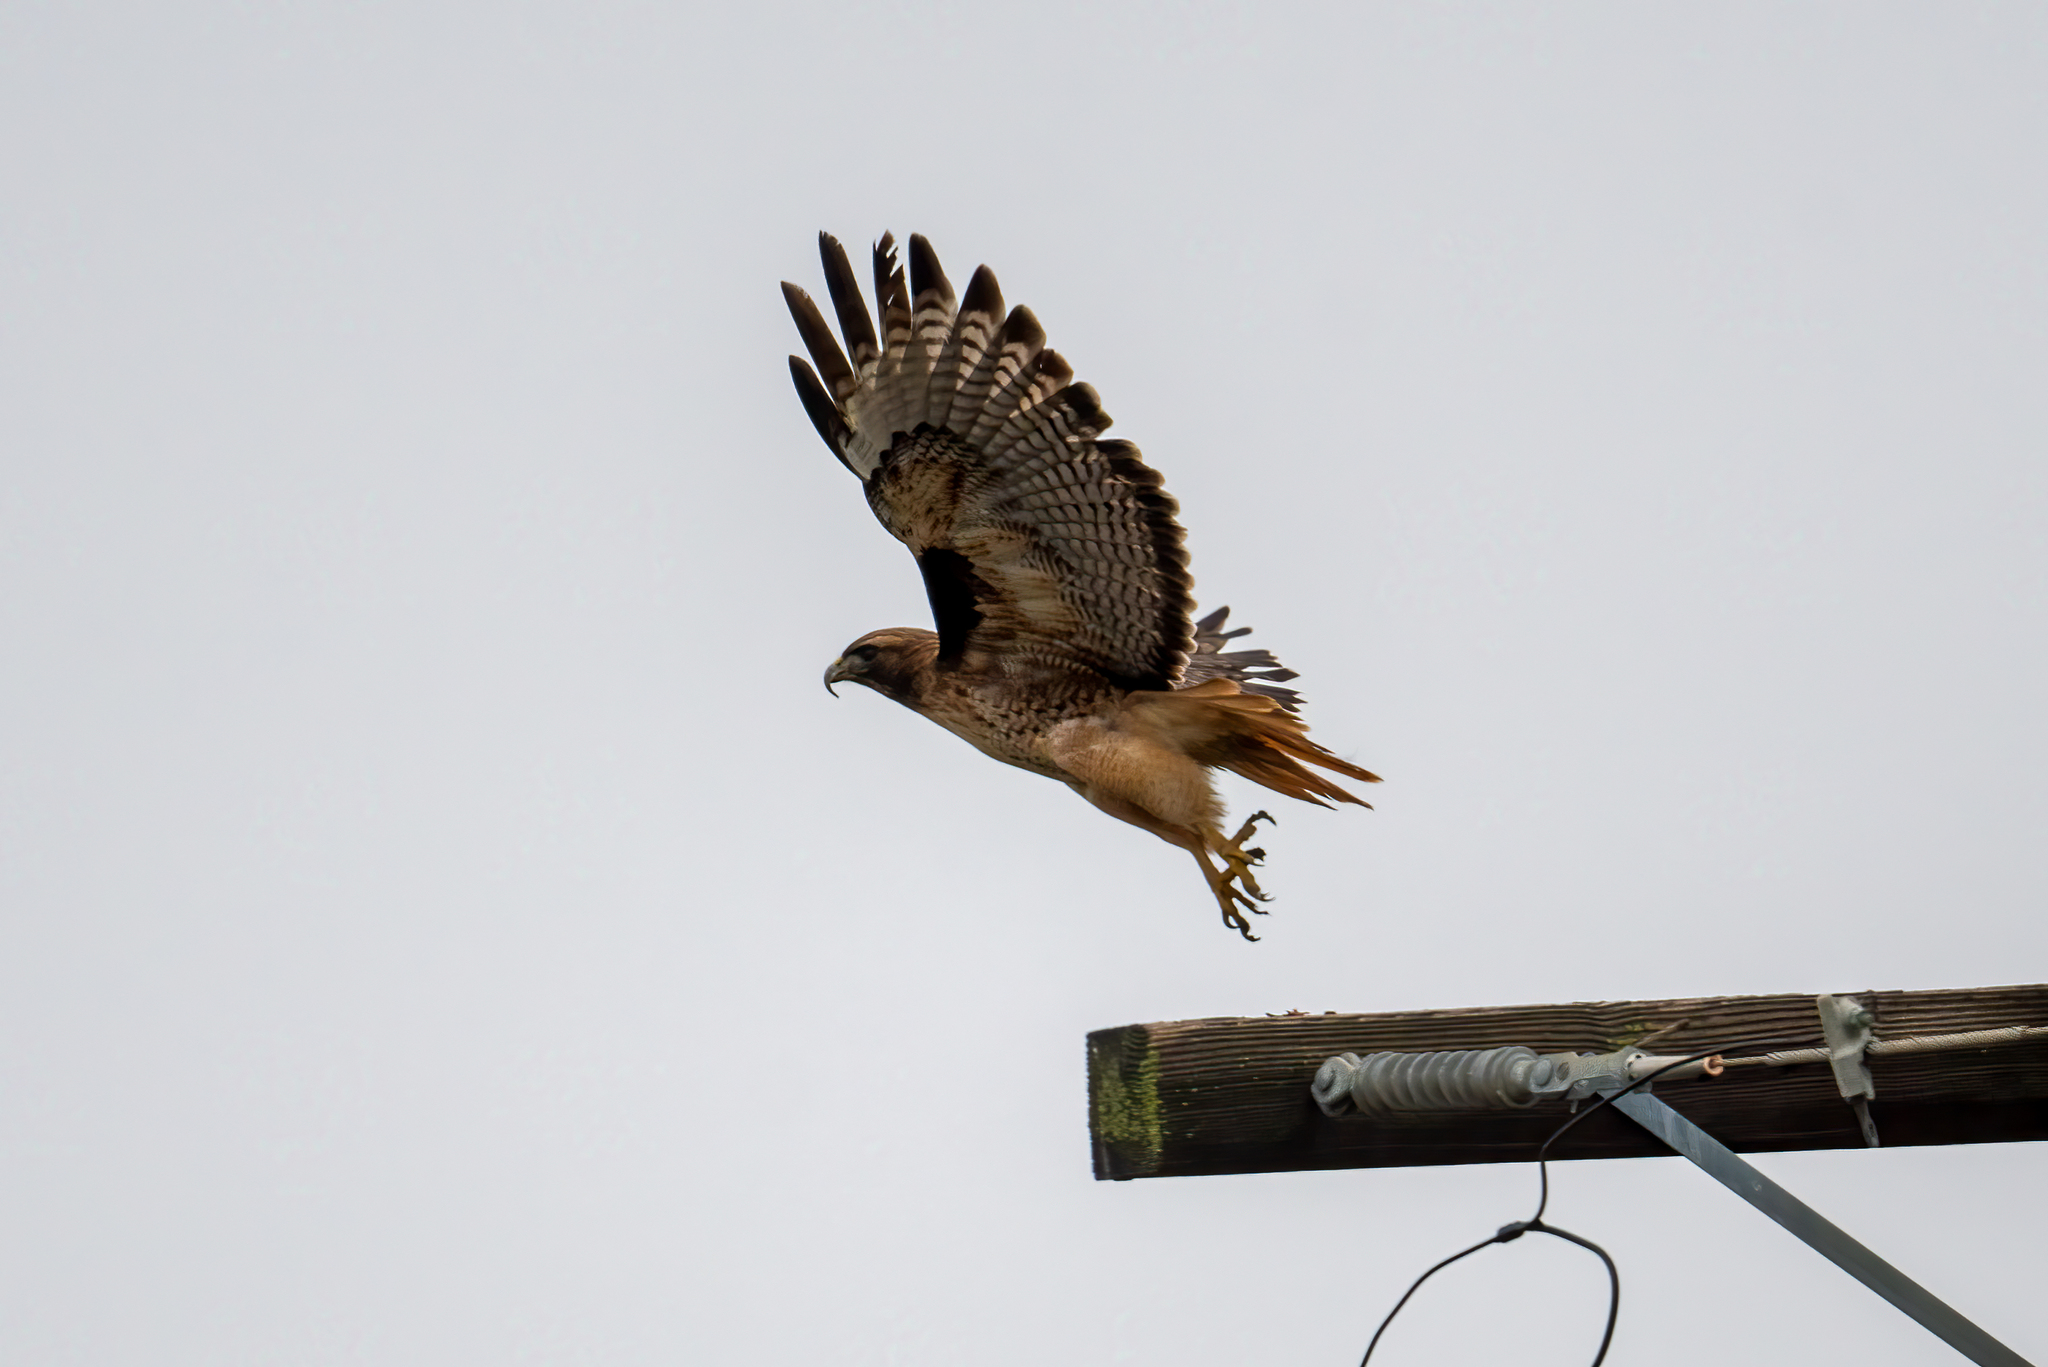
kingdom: Animalia
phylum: Chordata
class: Aves
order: Accipitriformes
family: Accipitridae
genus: Buteo
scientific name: Buteo jamaicensis
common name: Red-tailed hawk
